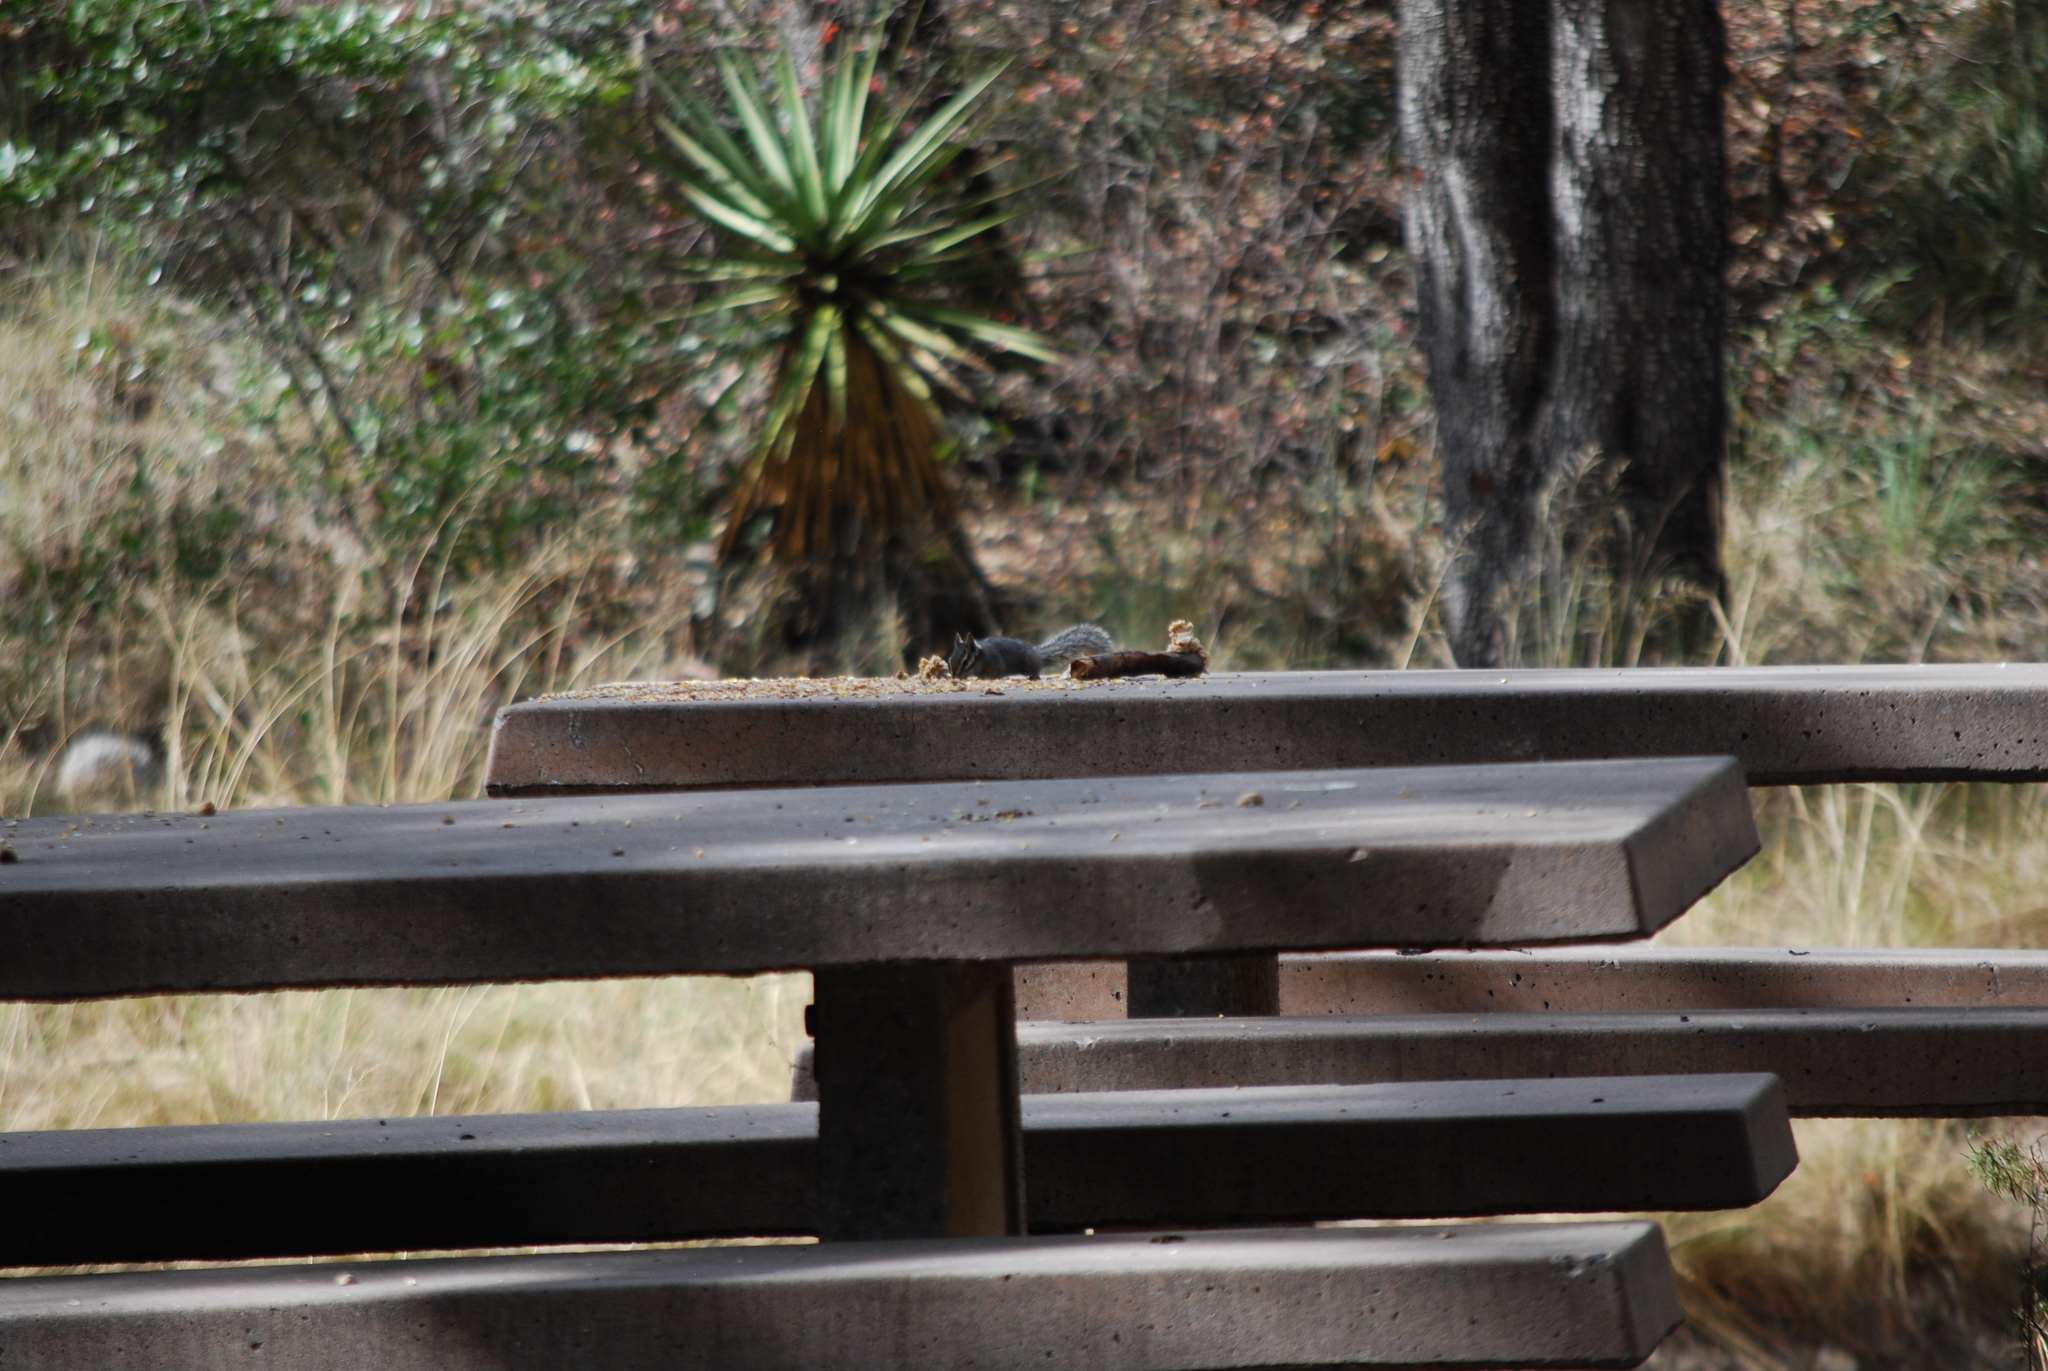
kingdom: Animalia
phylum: Chordata
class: Mammalia
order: Rodentia
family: Sciuridae
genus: Tamias
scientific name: Tamias dorsalis
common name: Cliff chipmunk
